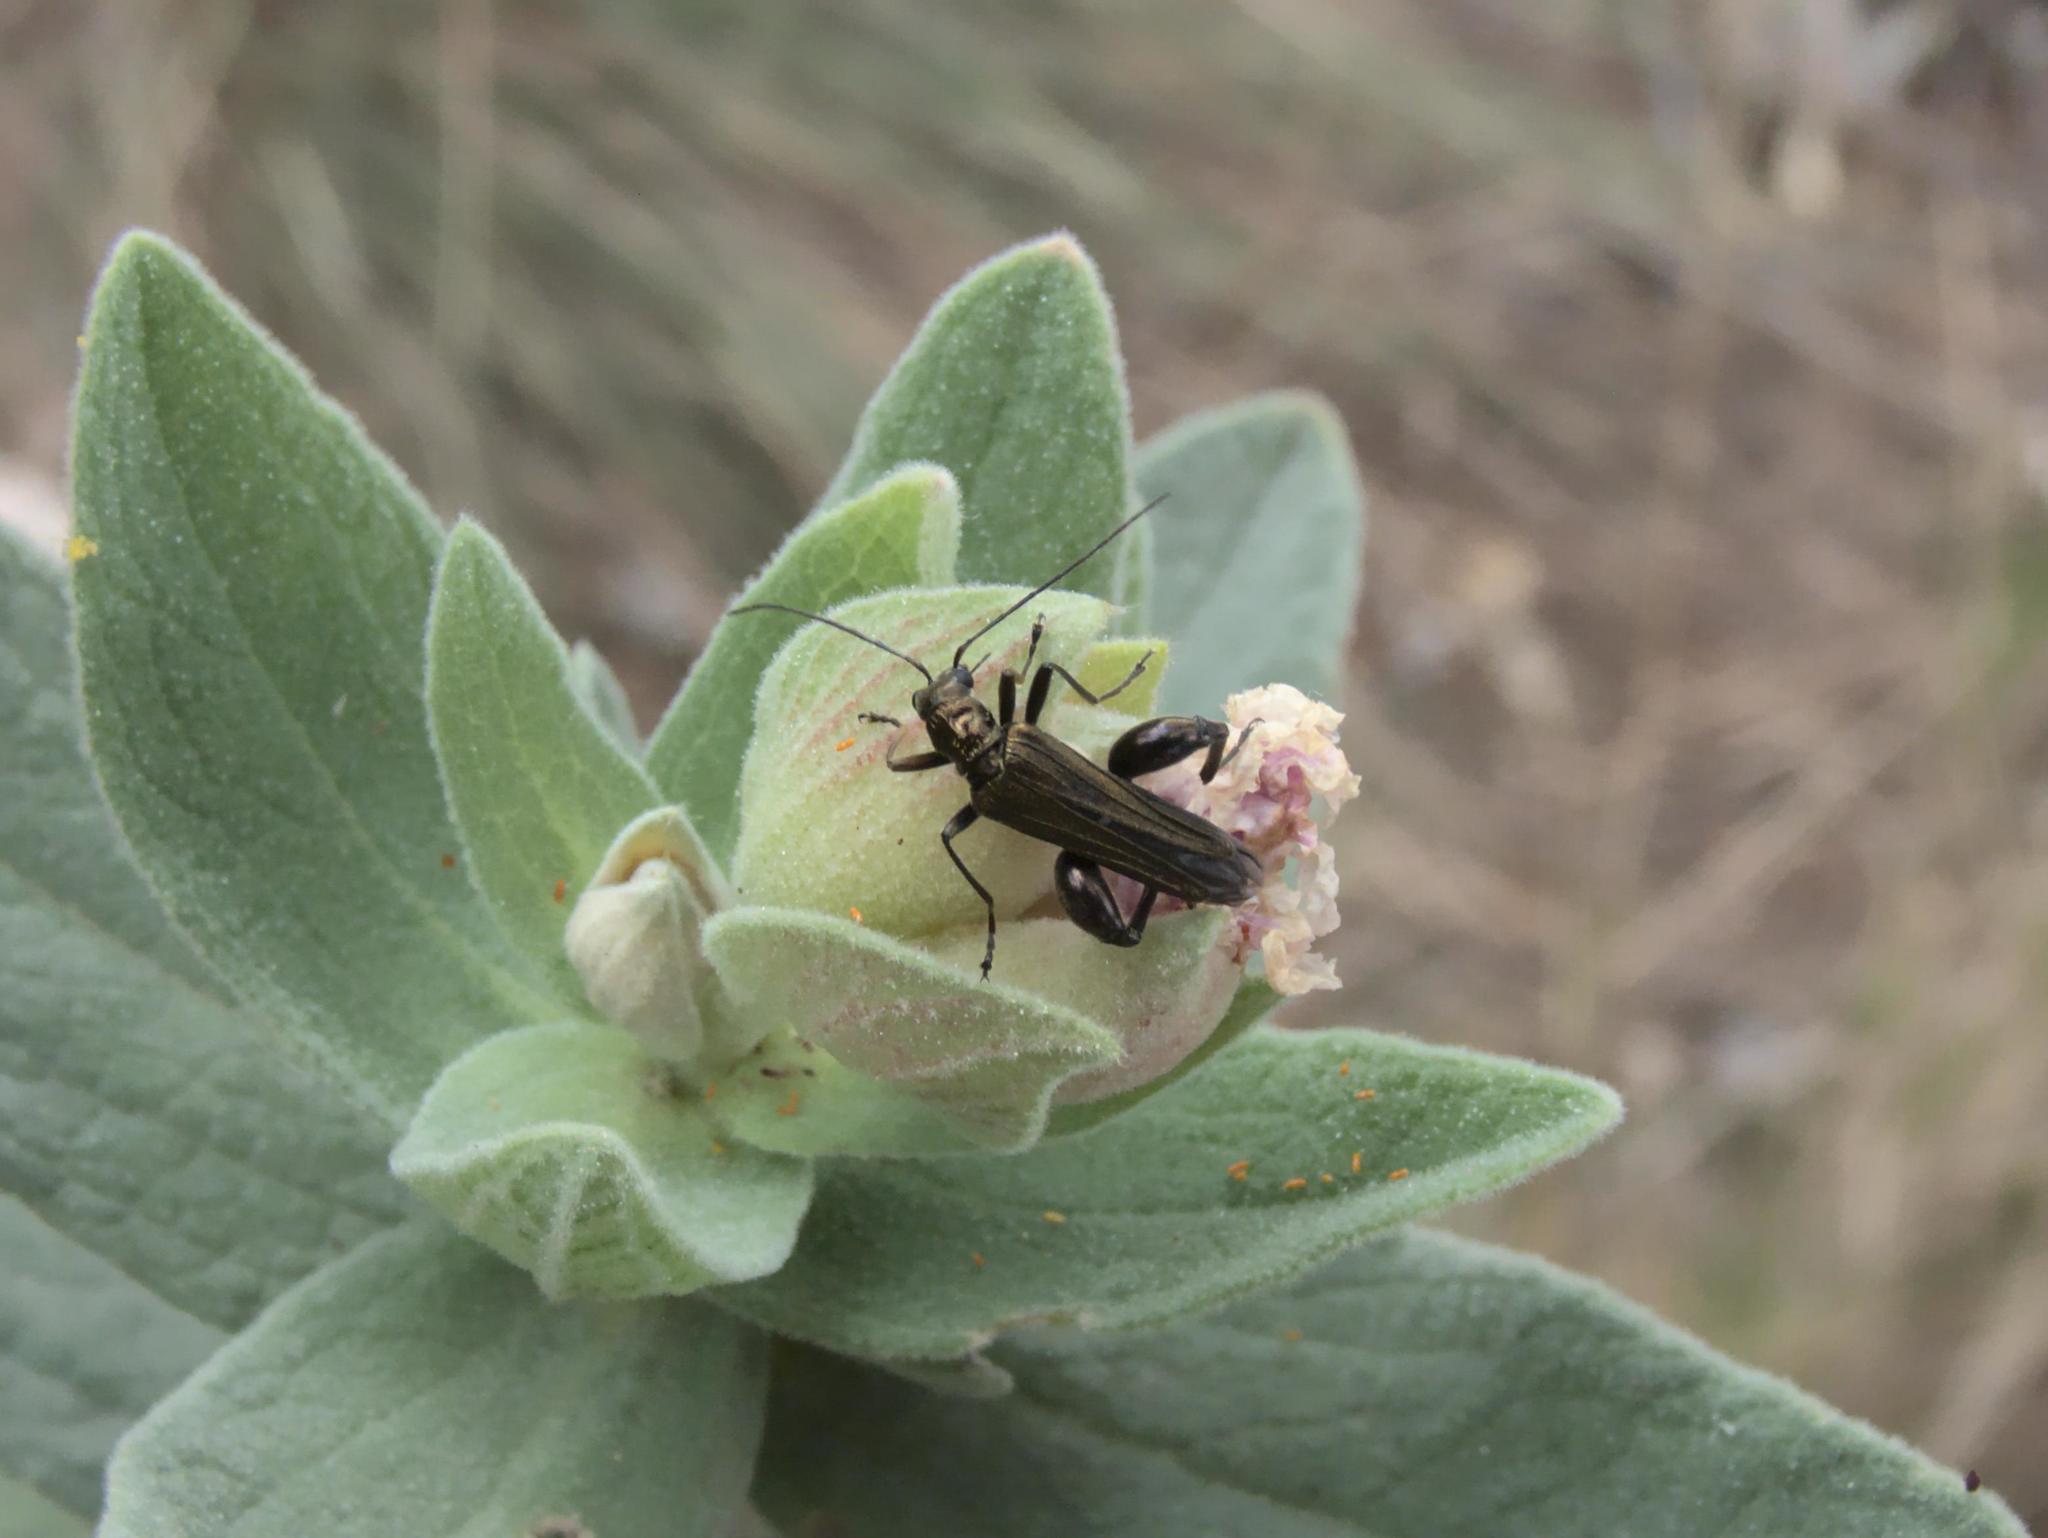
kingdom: Animalia
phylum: Arthropoda
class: Insecta
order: Coleoptera
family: Oedemeridae
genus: Oedemera
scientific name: Oedemera flavipes
